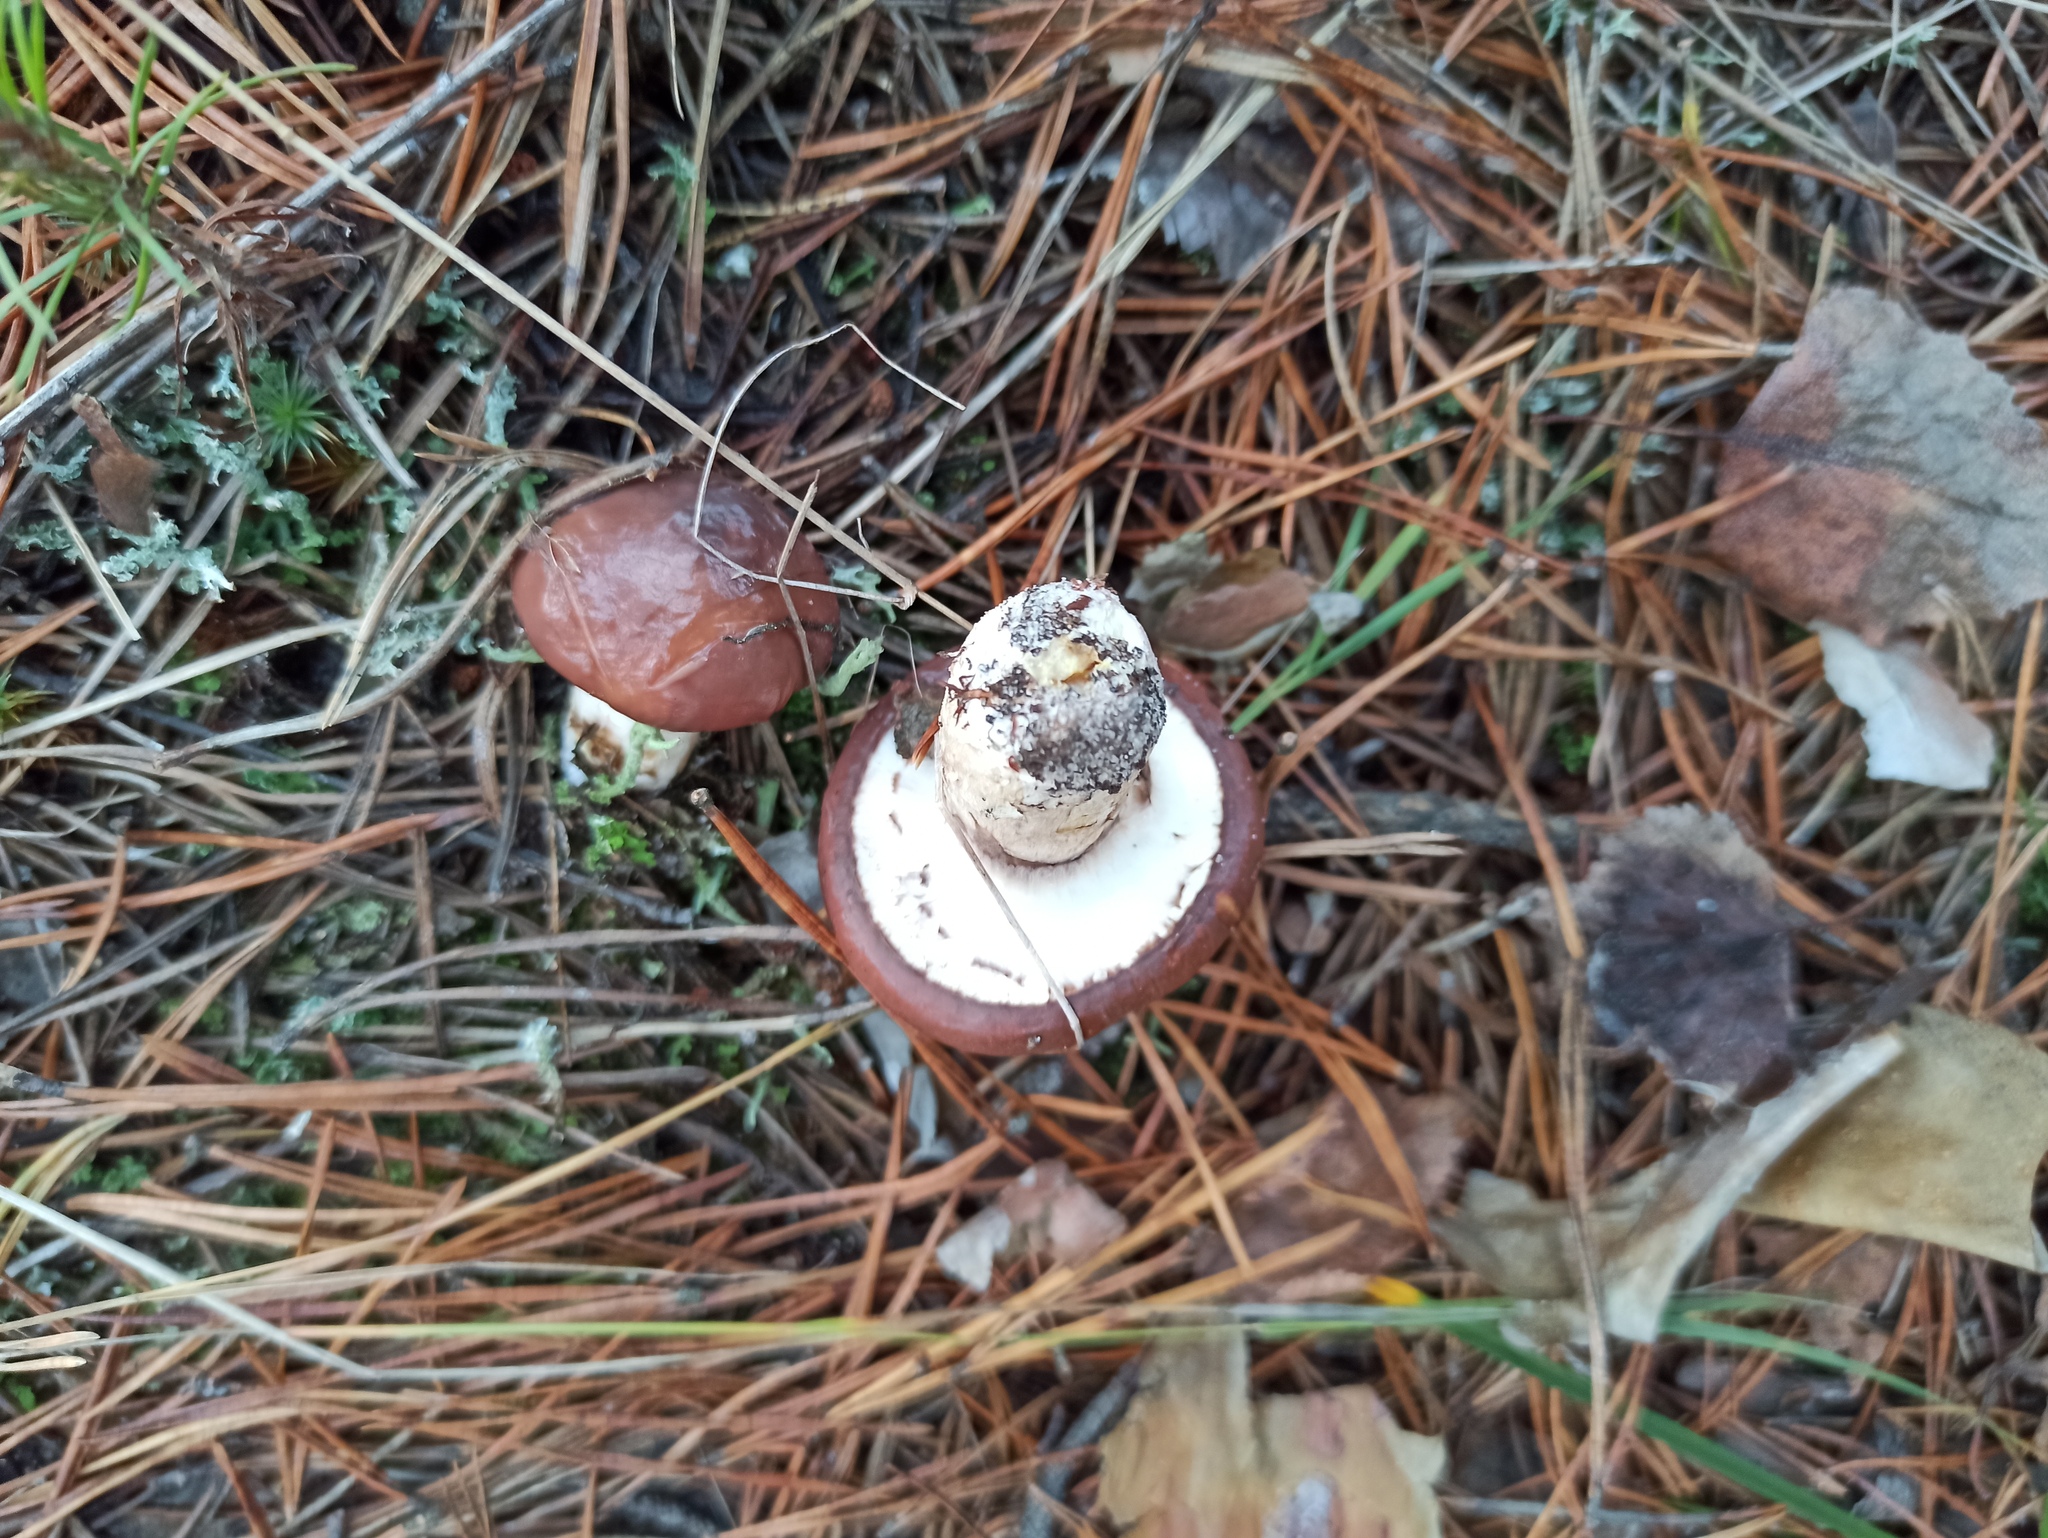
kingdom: Fungi
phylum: Basidiomycota
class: Agaricomycetes
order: Boletales
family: Suillaceae
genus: Suillus
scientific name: Suillus luteus
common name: Slippery jack
